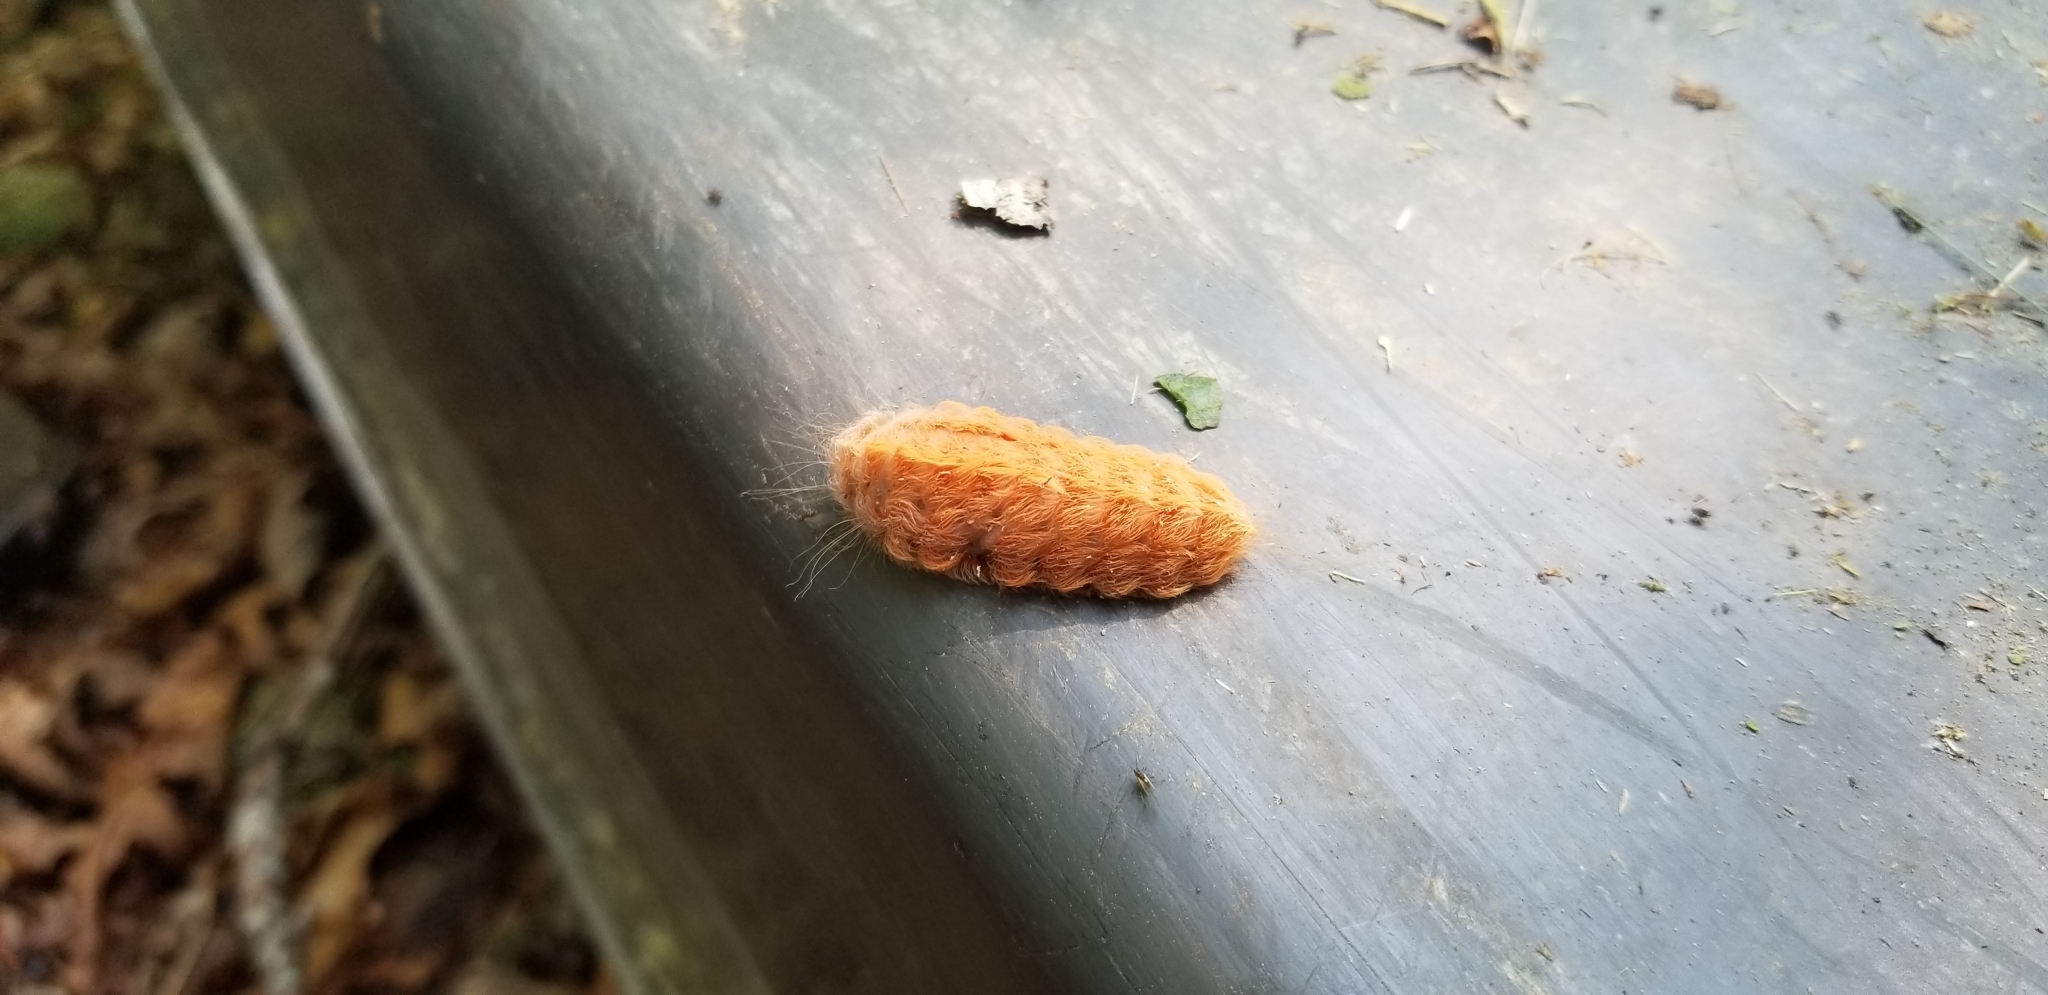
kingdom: Animalia
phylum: Arthropoda
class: Insecta
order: Lepidoptera
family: Megalopygidae
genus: Megalopyge
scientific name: Megalopyge crispata
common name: Black-waved flannel moth
